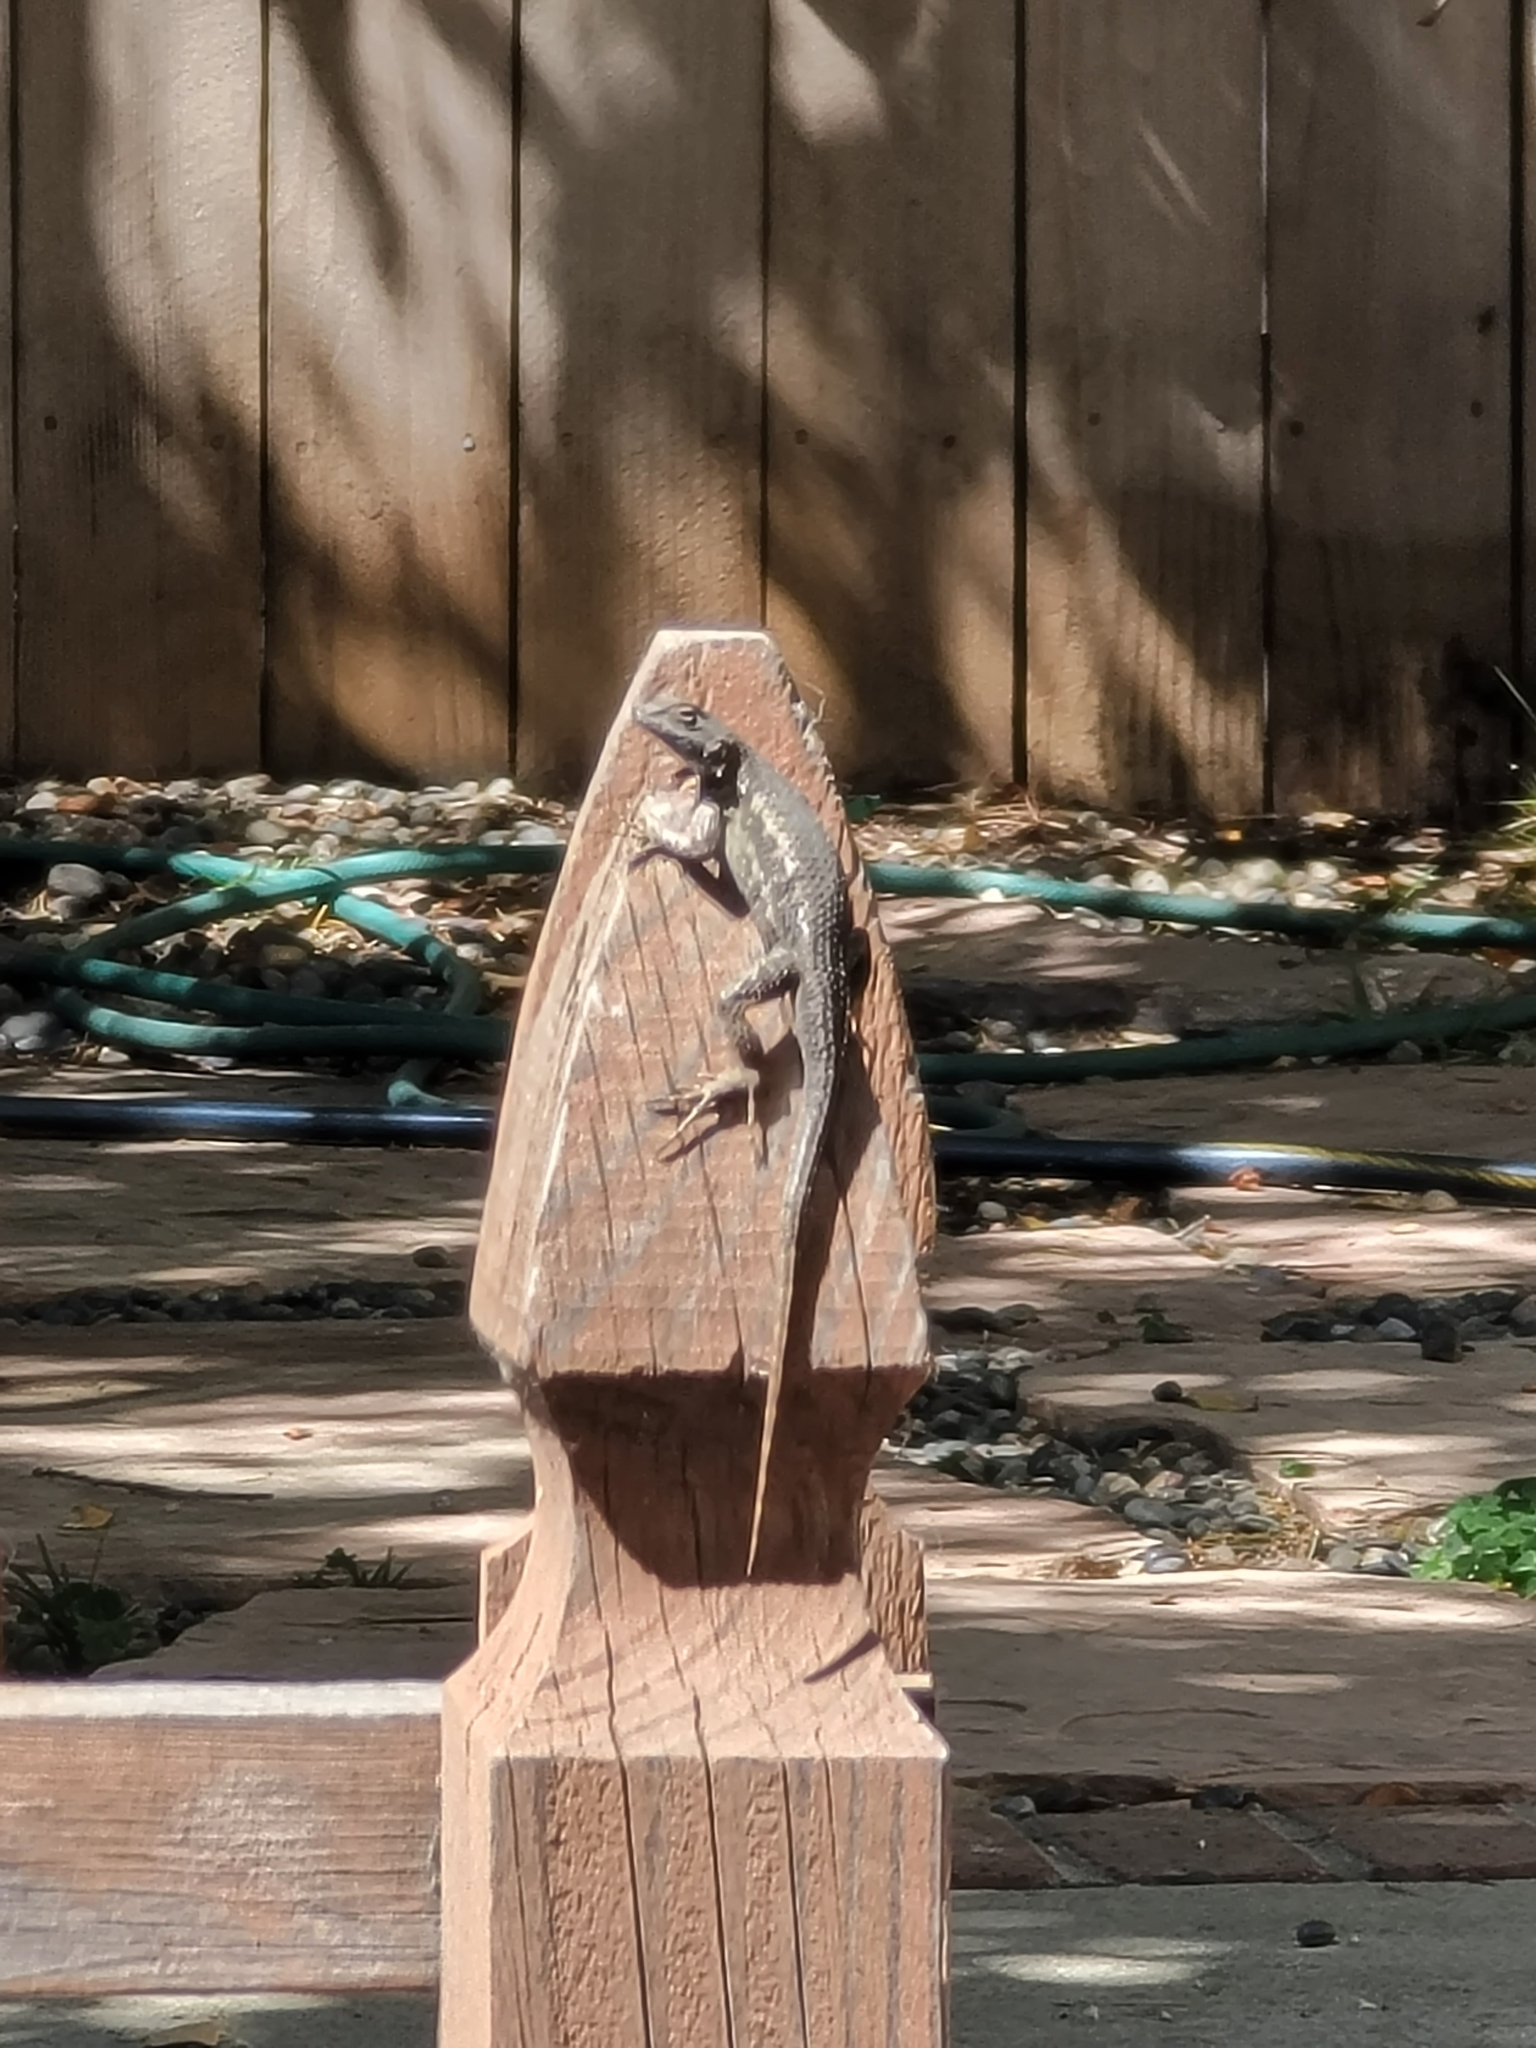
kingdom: Animalia
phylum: Chordata
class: Squamata
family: Phrynosomatidae
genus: Sceloporus
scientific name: Sceloporus occidentalis
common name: Western fence lizard
